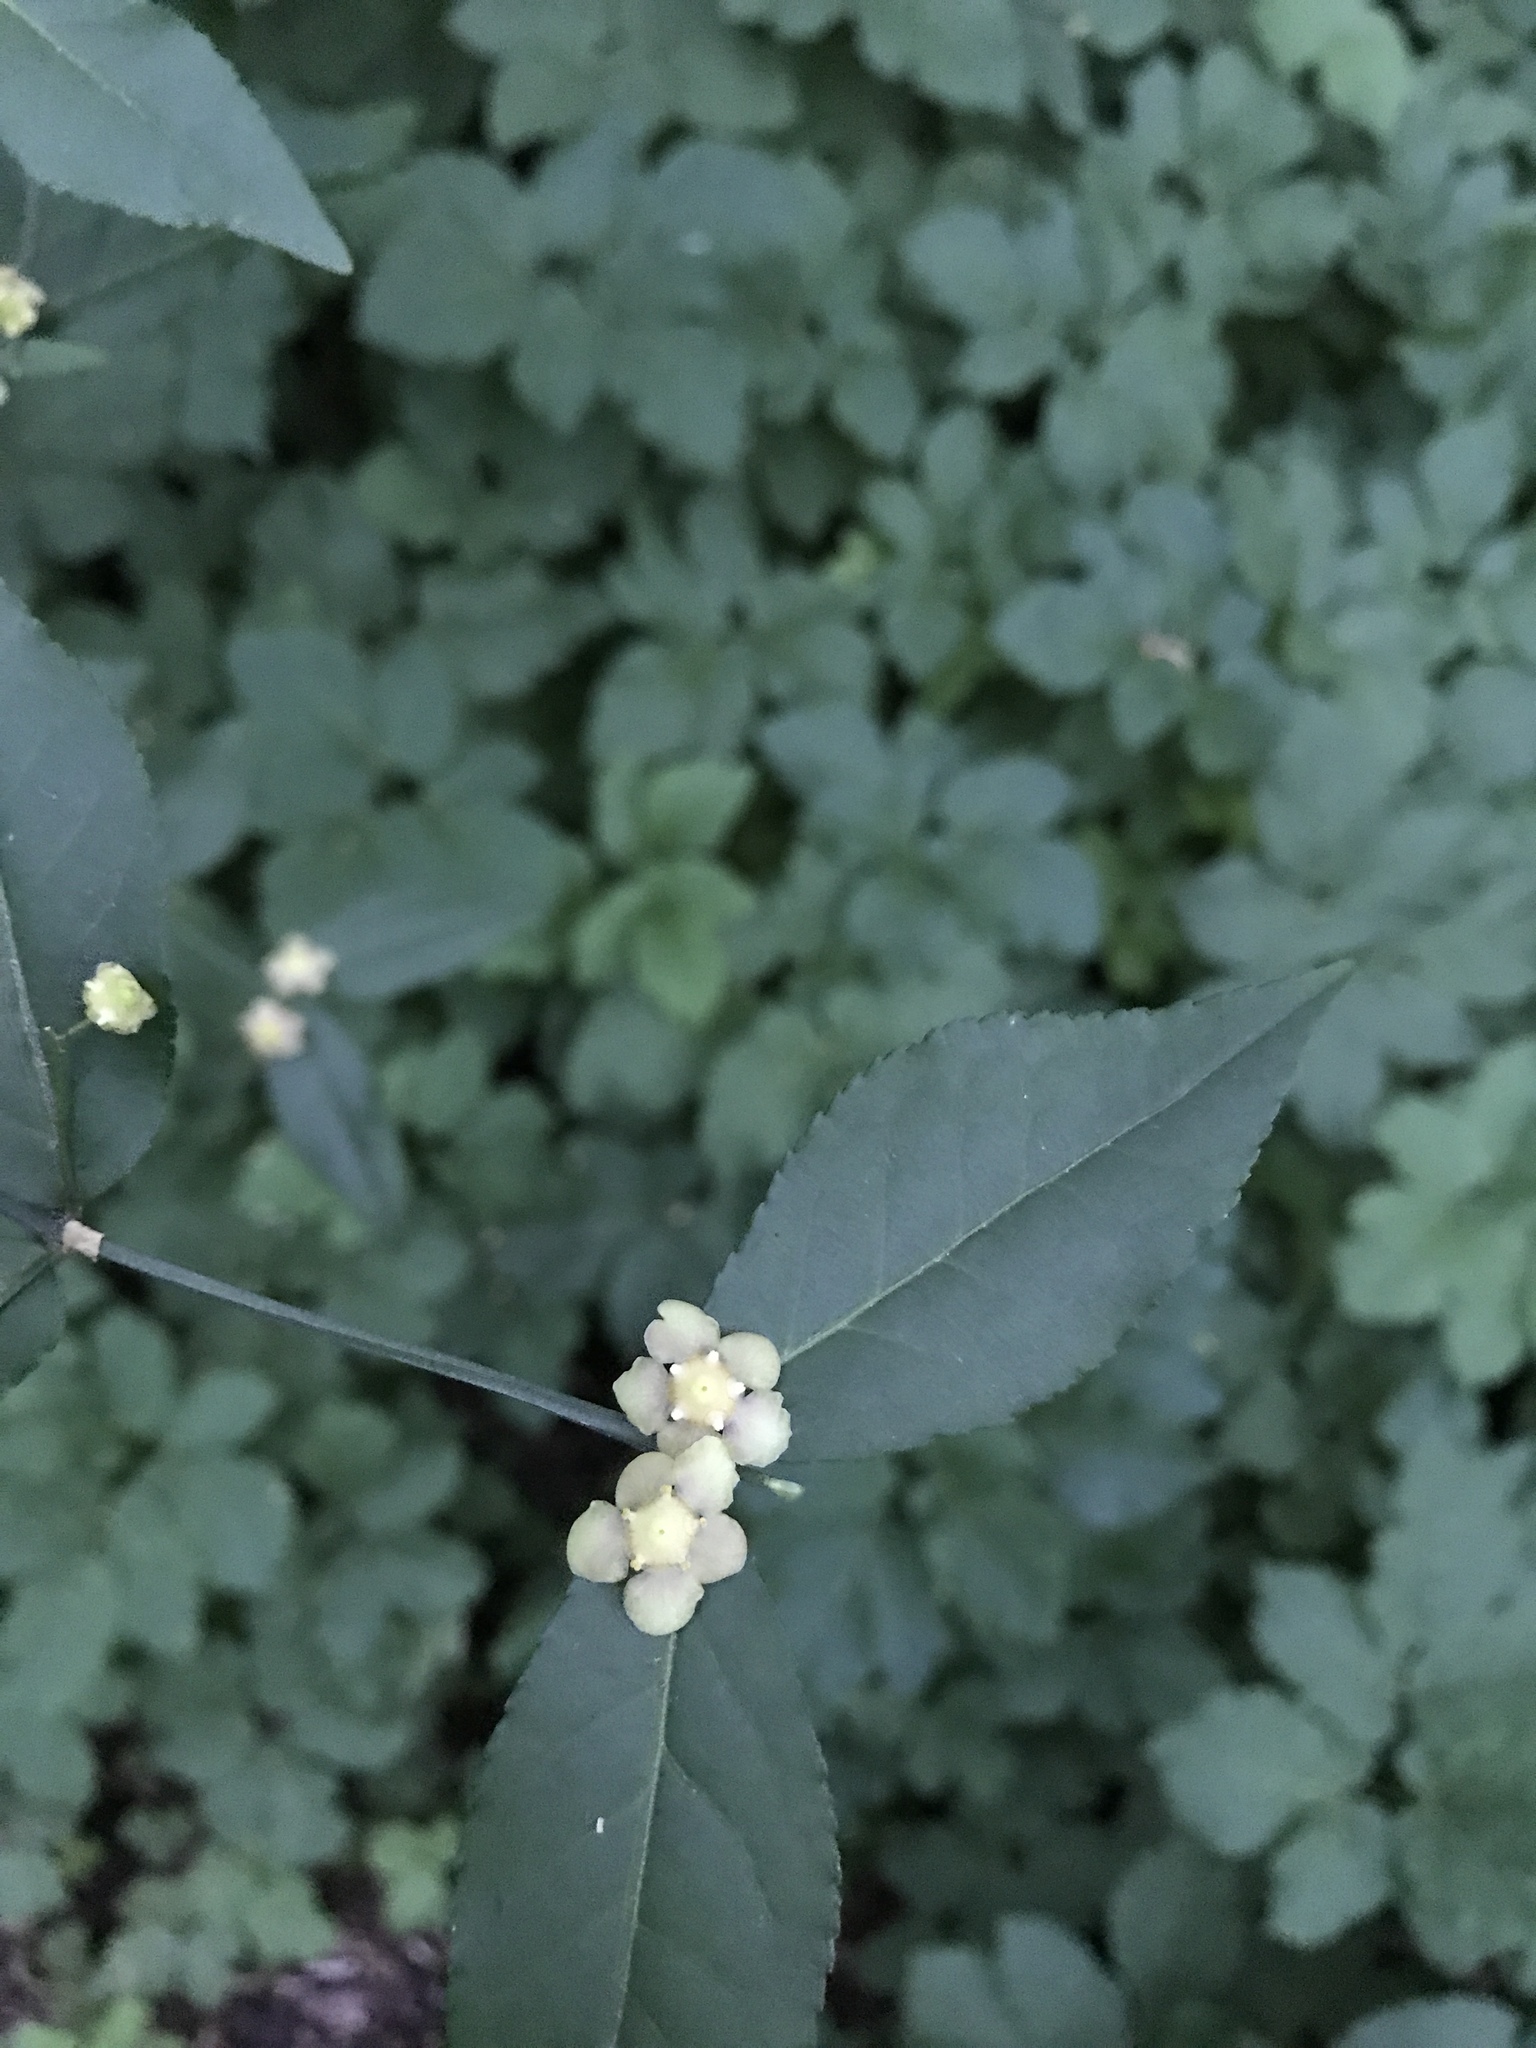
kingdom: Plantae
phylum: Tracheophyta
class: Magnoliopsida
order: Celastrales
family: Celastraceae
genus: Euonymus
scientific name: Euonymus americanus
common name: Bursting-heart
